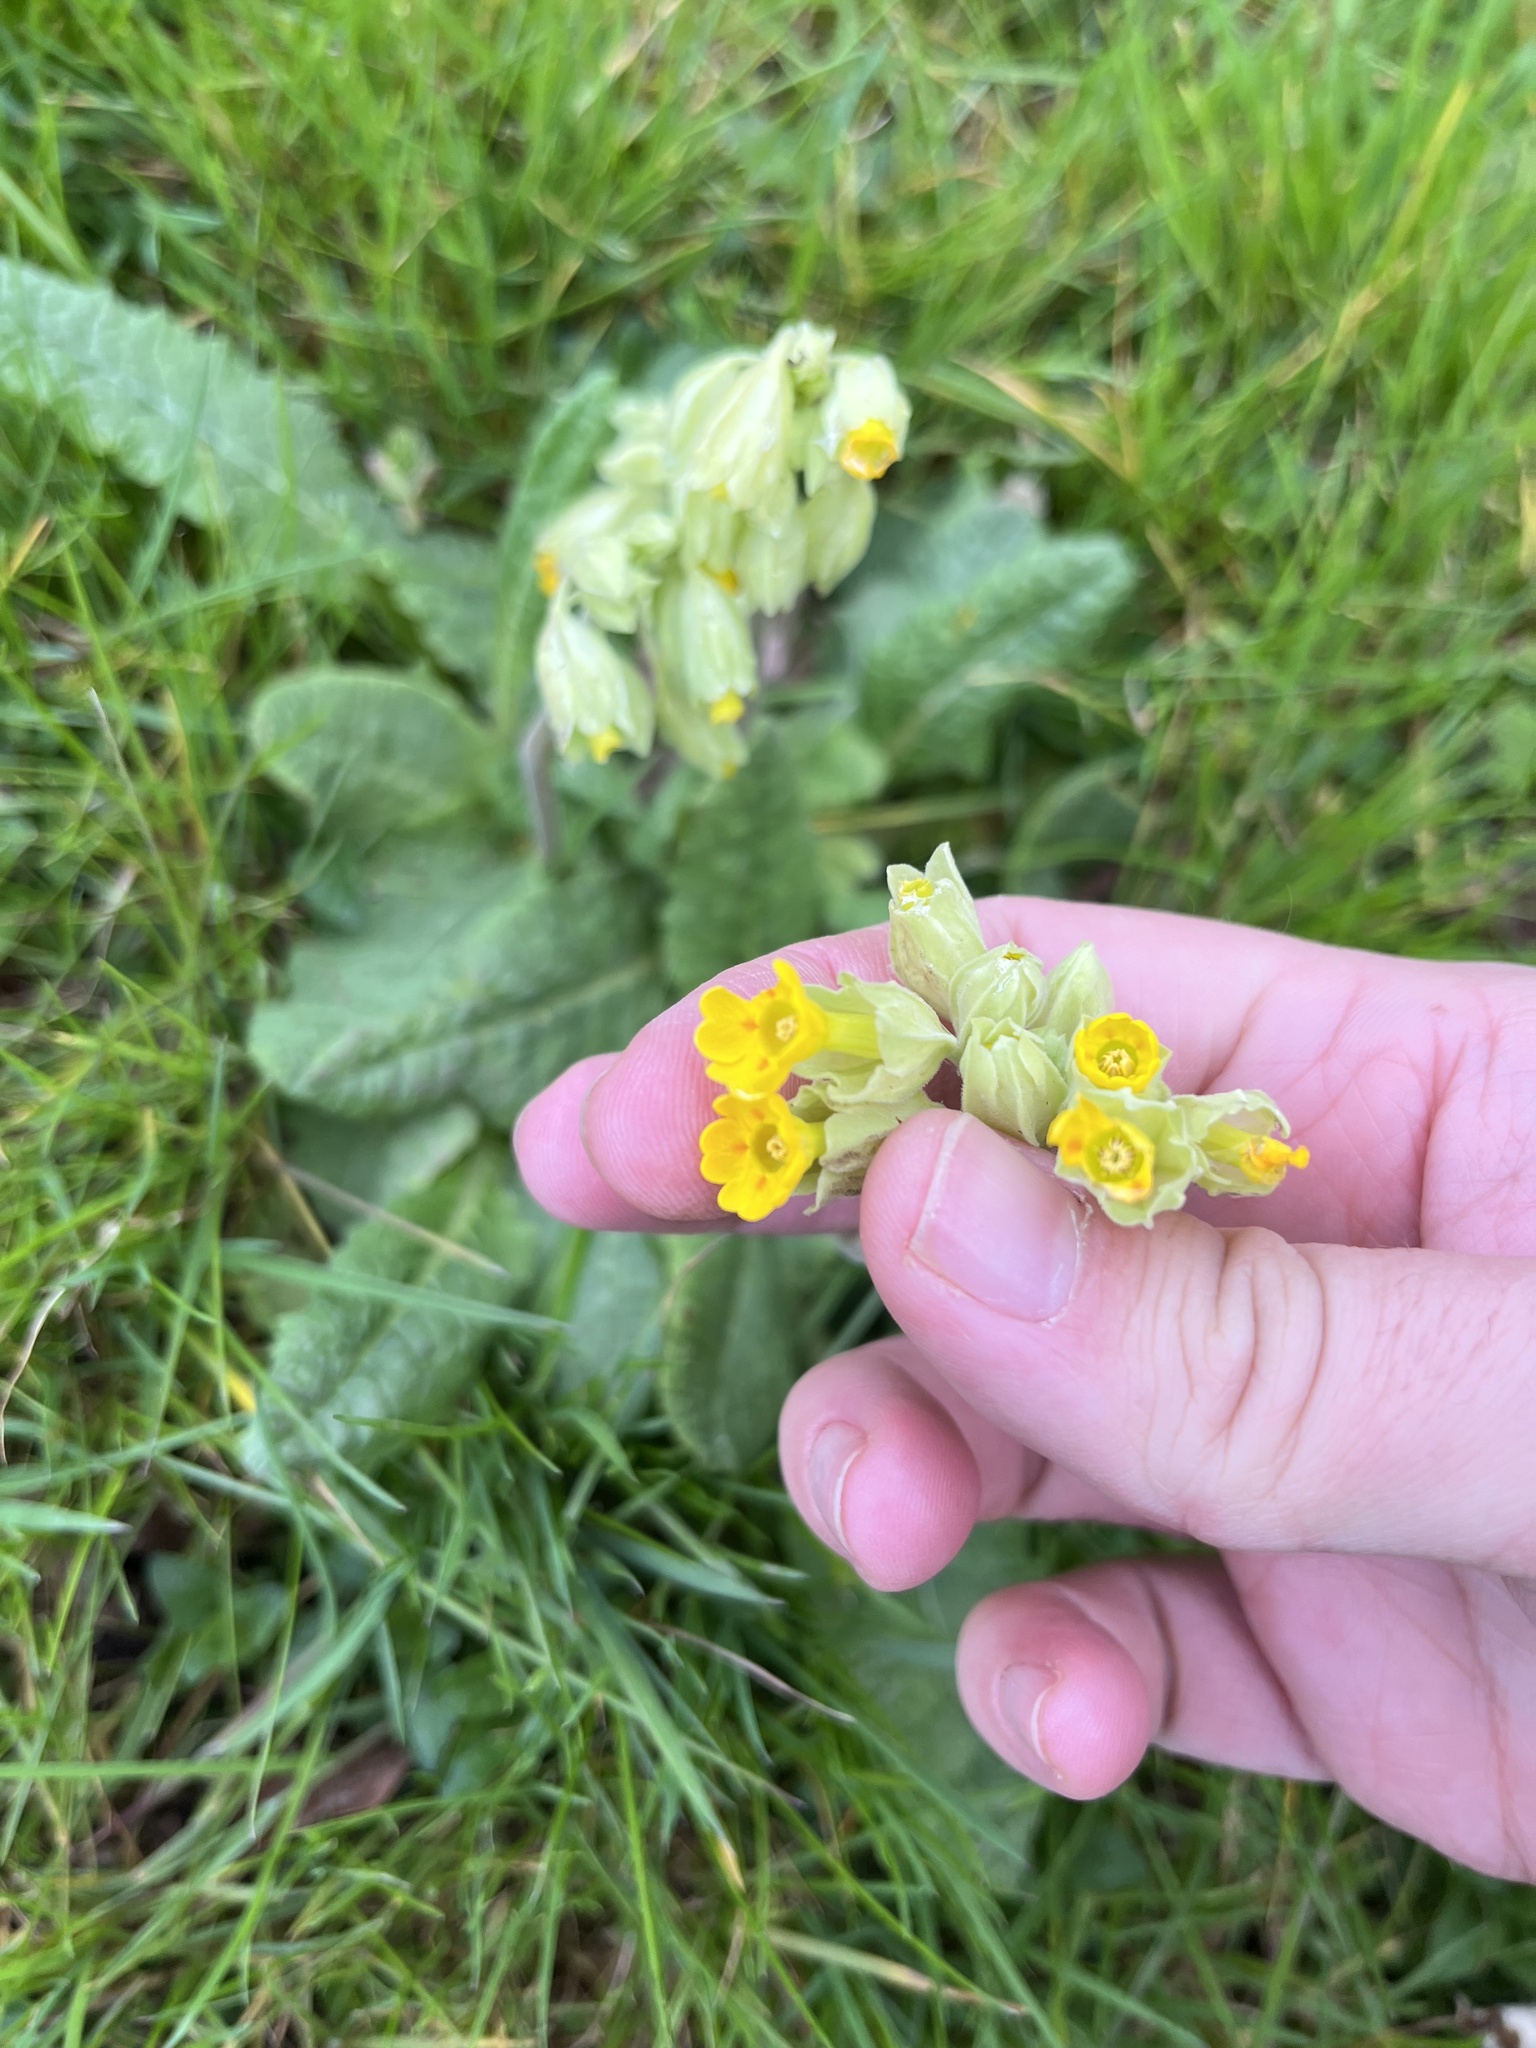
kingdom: Plantae
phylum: Tracheophyta
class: Magnoliopsida
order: Ericales
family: Primulaceae
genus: Primula
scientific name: Primula veris
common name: Cowslip
